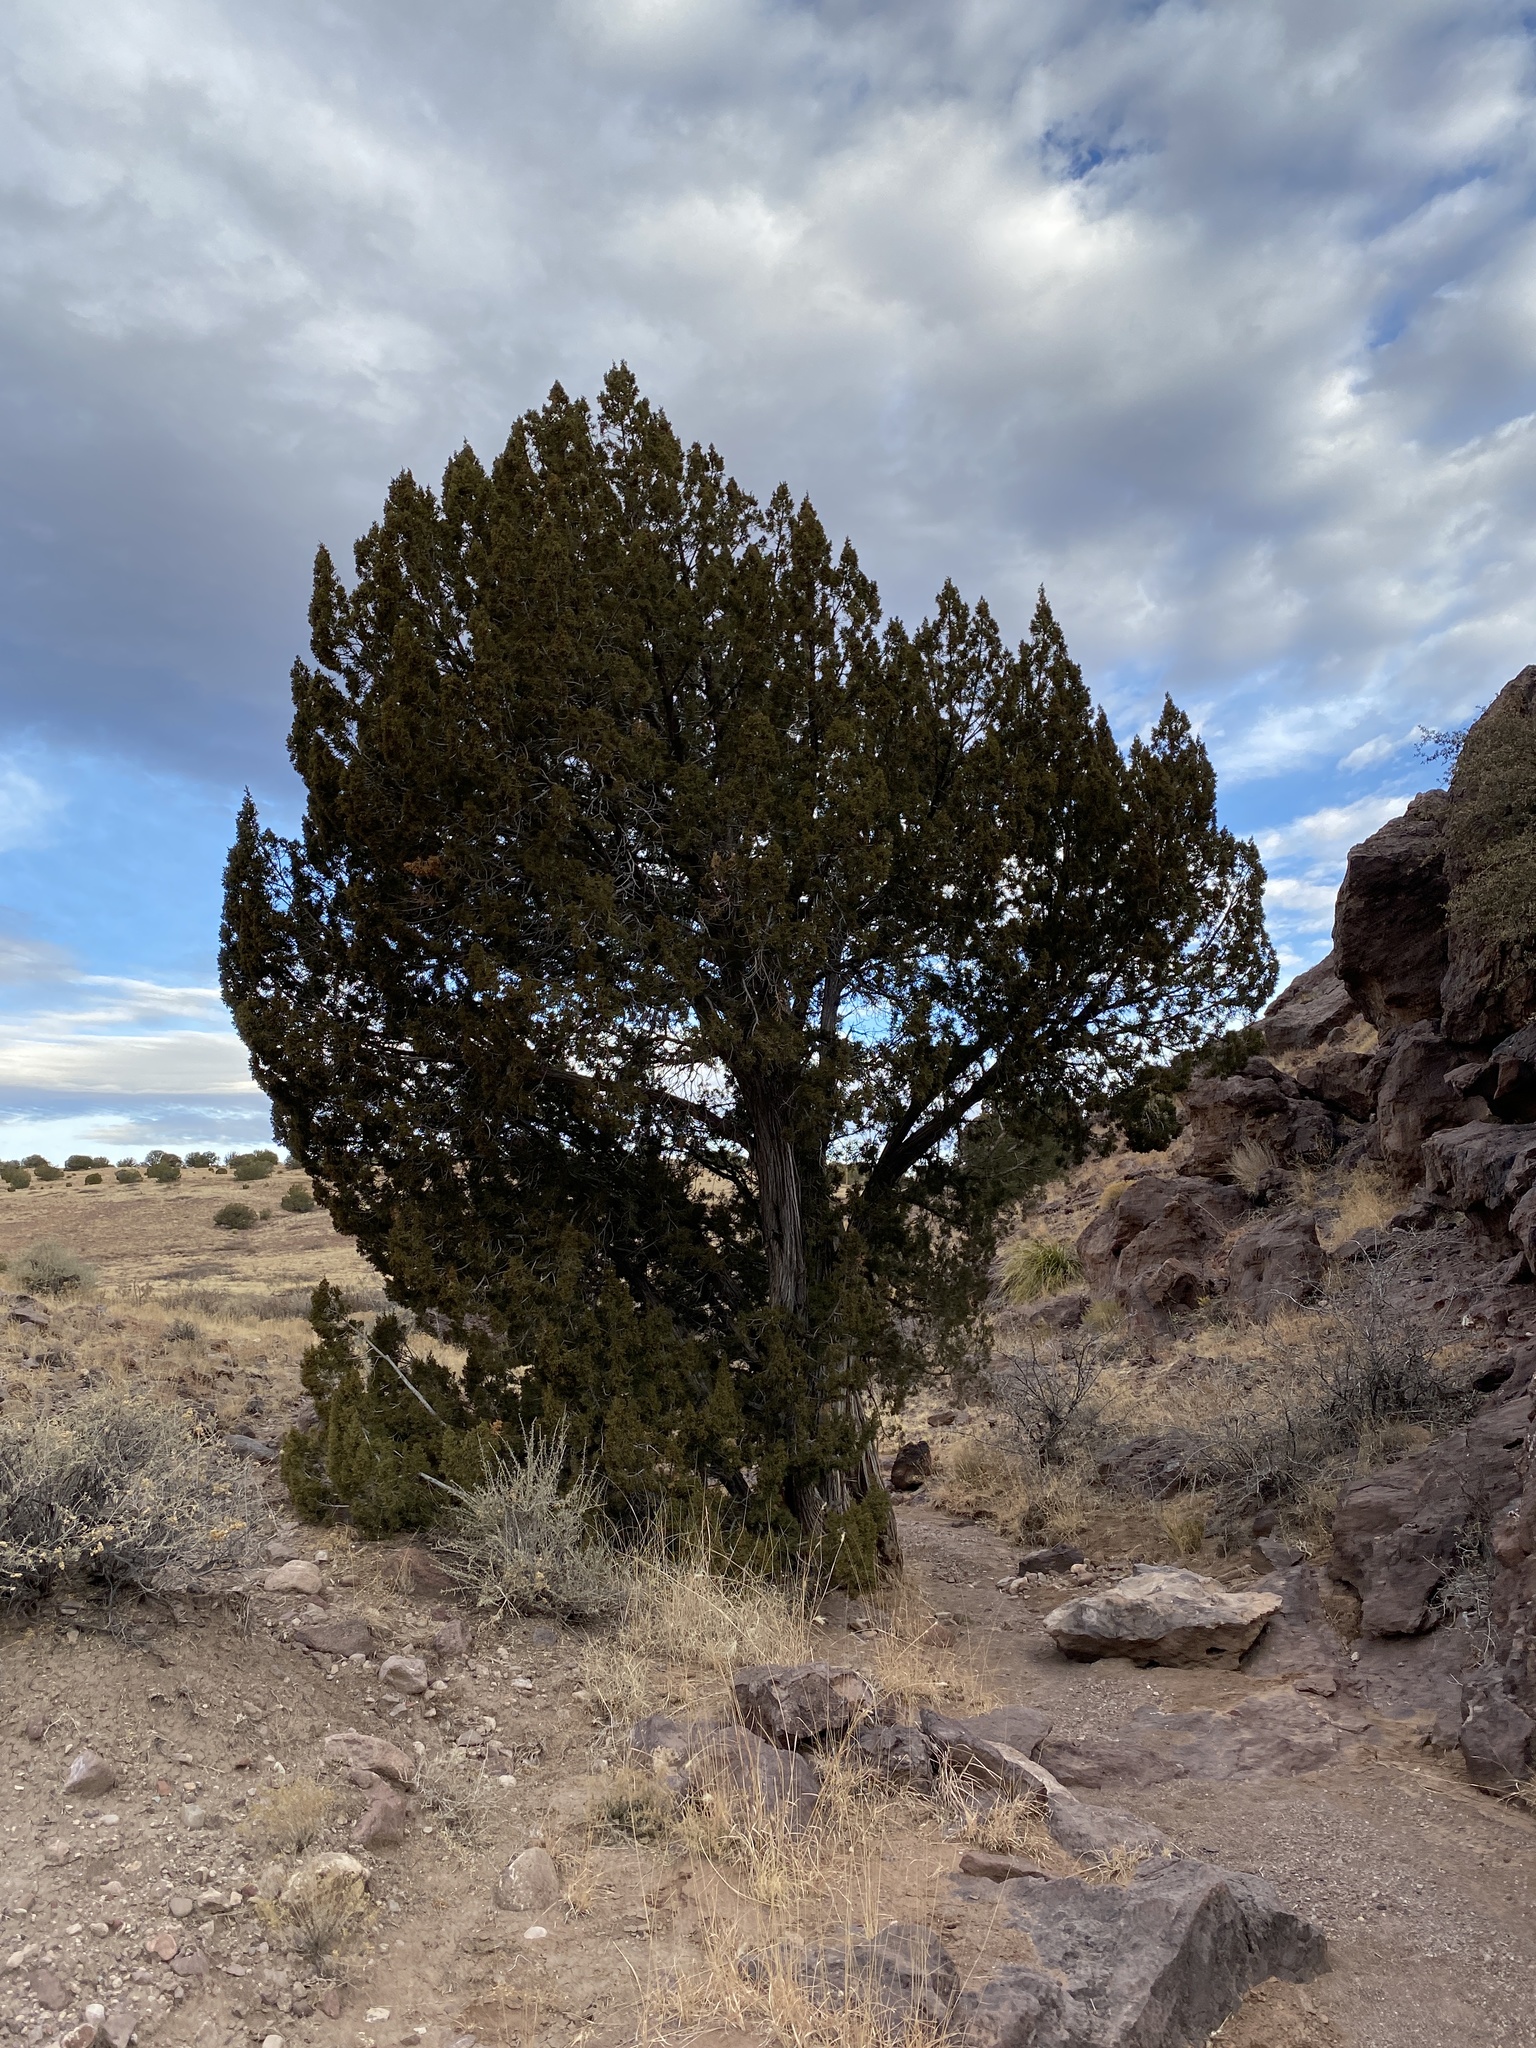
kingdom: Plantae
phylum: Tracheophyta
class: Pinopsida
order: Pinales
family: Cupressaceae
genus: Juniperus
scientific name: Juniperus monosperma
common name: One-seed juniper
